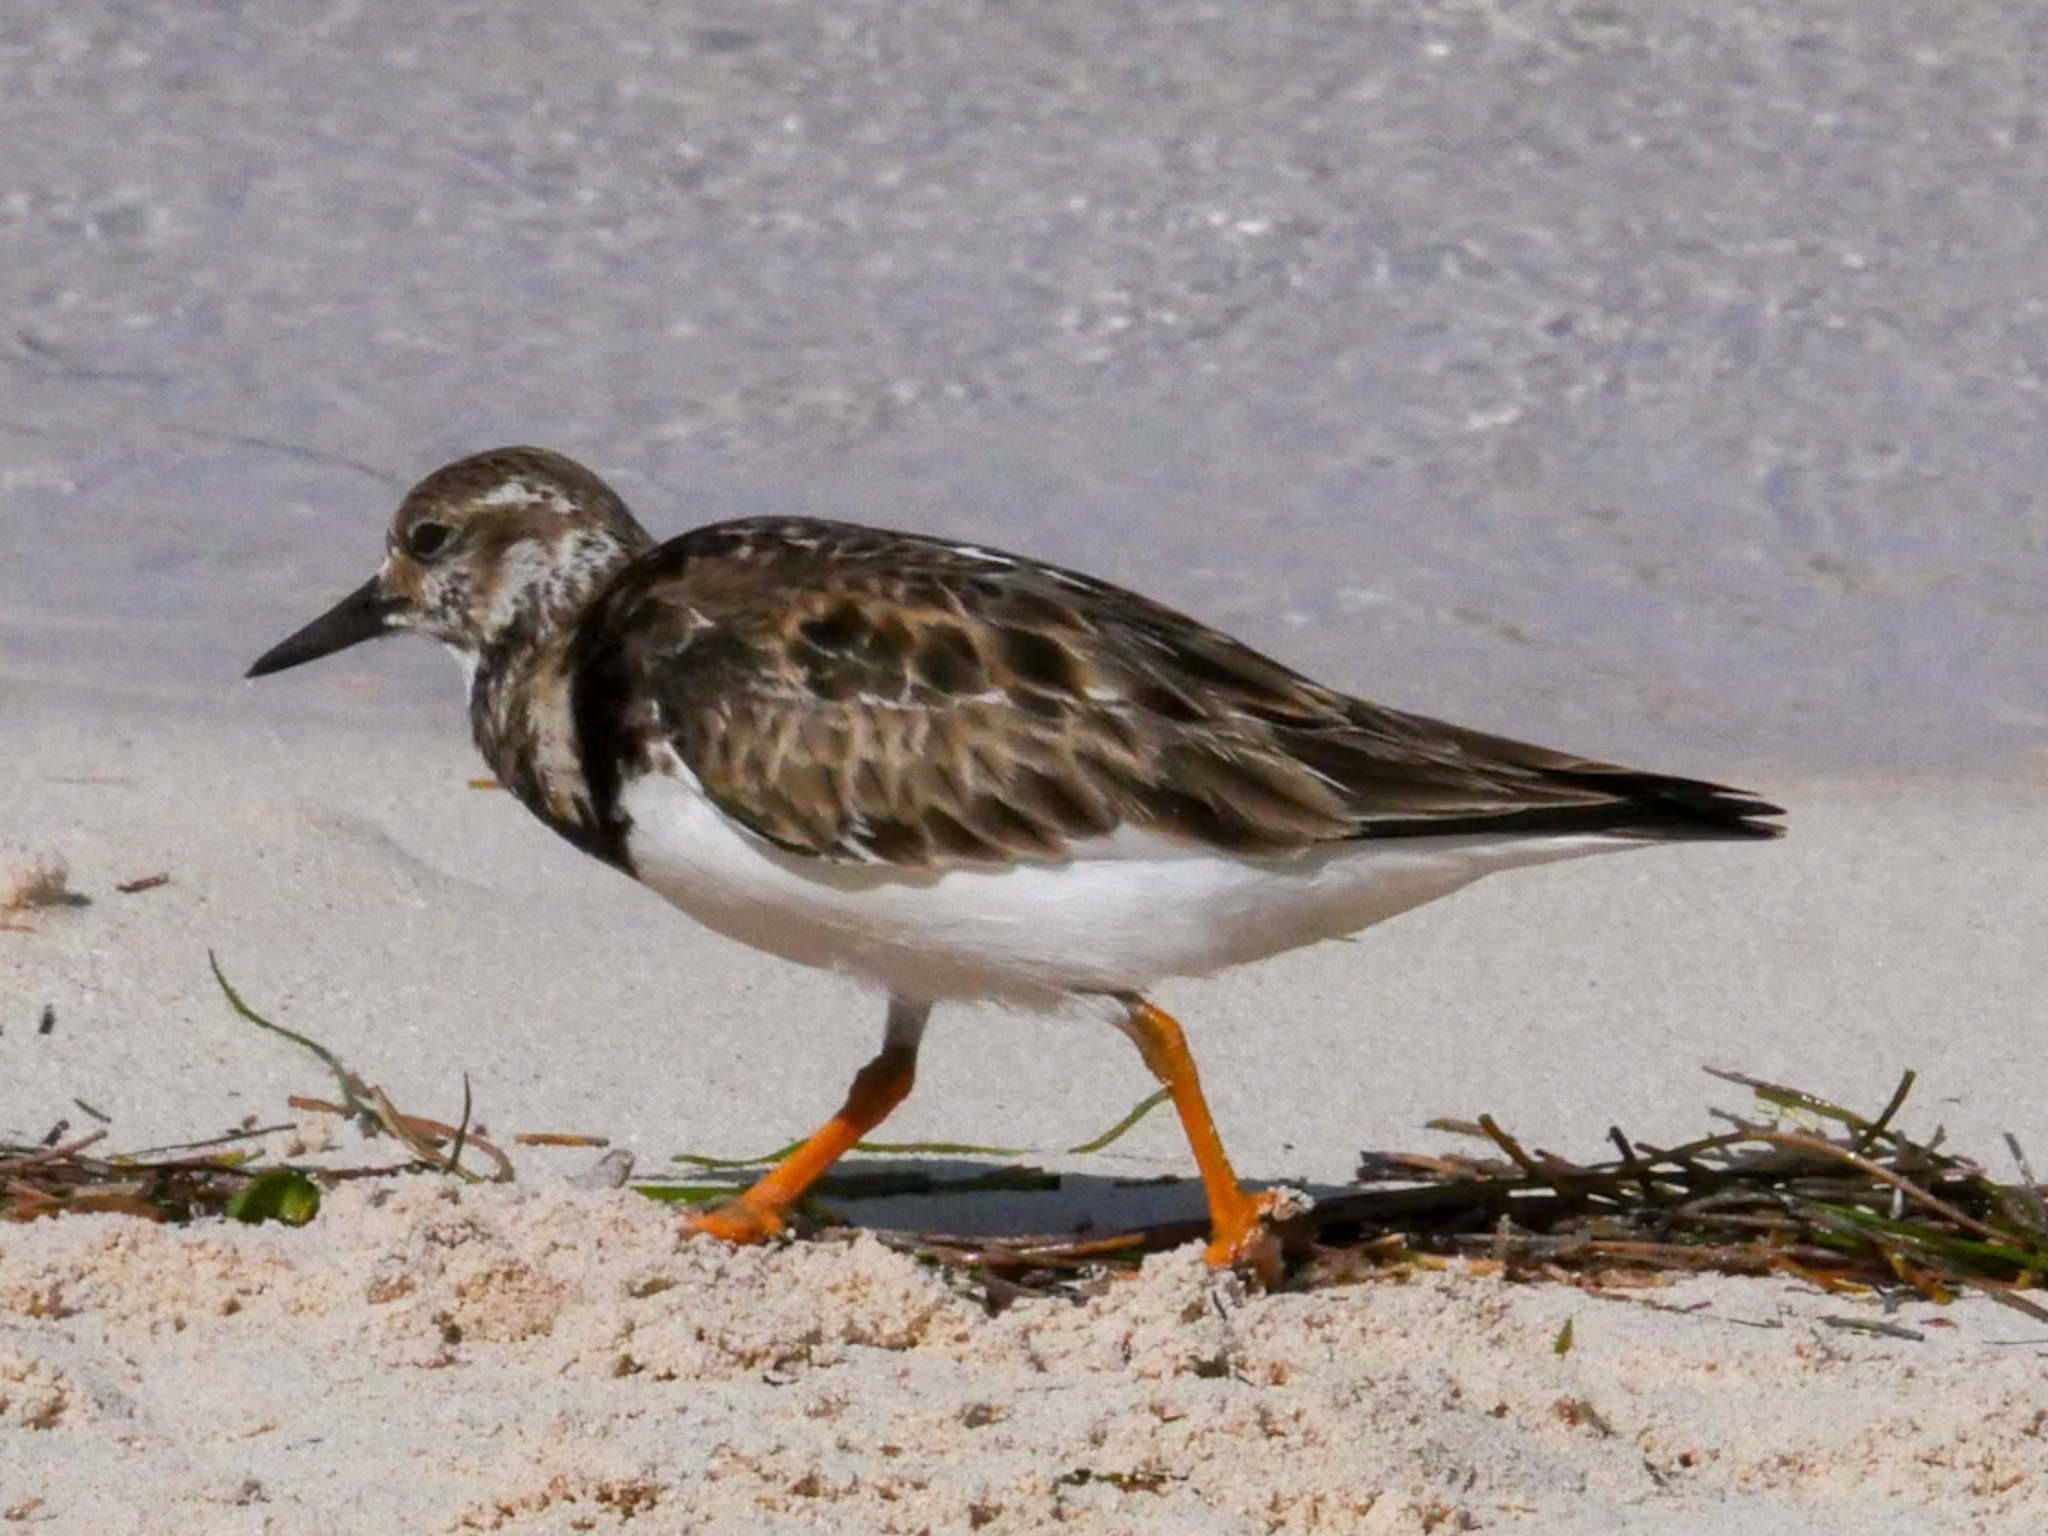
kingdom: Animalia
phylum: Chordata
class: Aves
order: Charadriiformes
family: Scolopacidae
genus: Arenaria
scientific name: Arenaria interpres
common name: Ruddy turnstone
